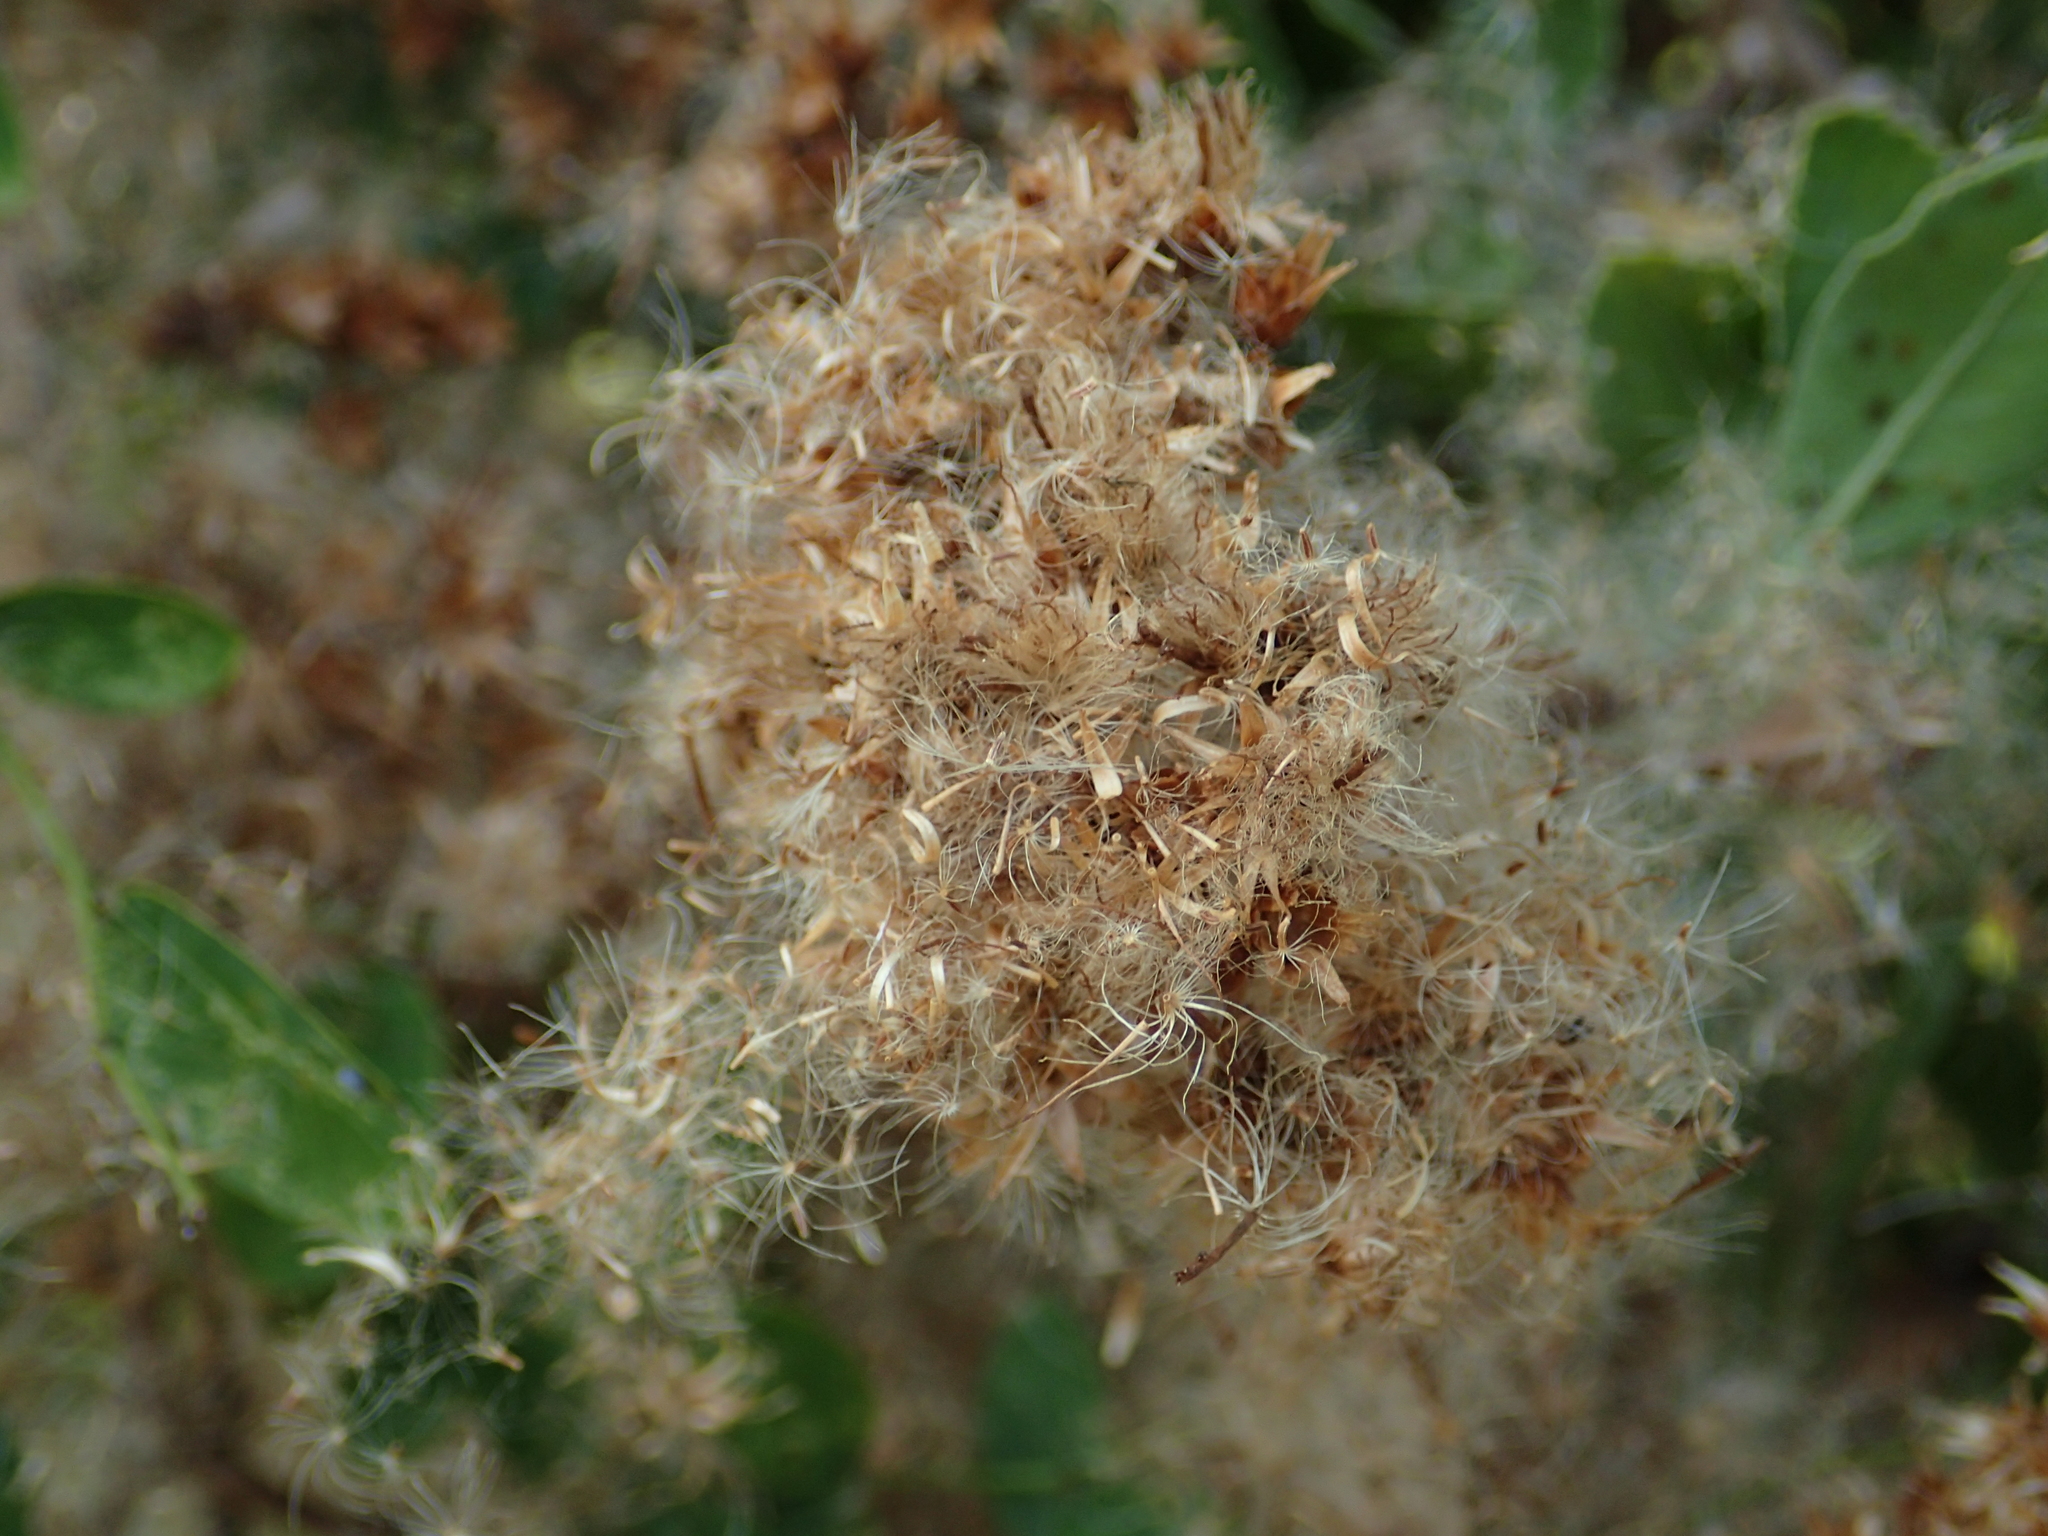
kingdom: Plantae
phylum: Tracheophyta
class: Magnoliopsida
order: Asterales
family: Asteraceae
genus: Pluchea
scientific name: Pluchea indica
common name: Indian fleabane
